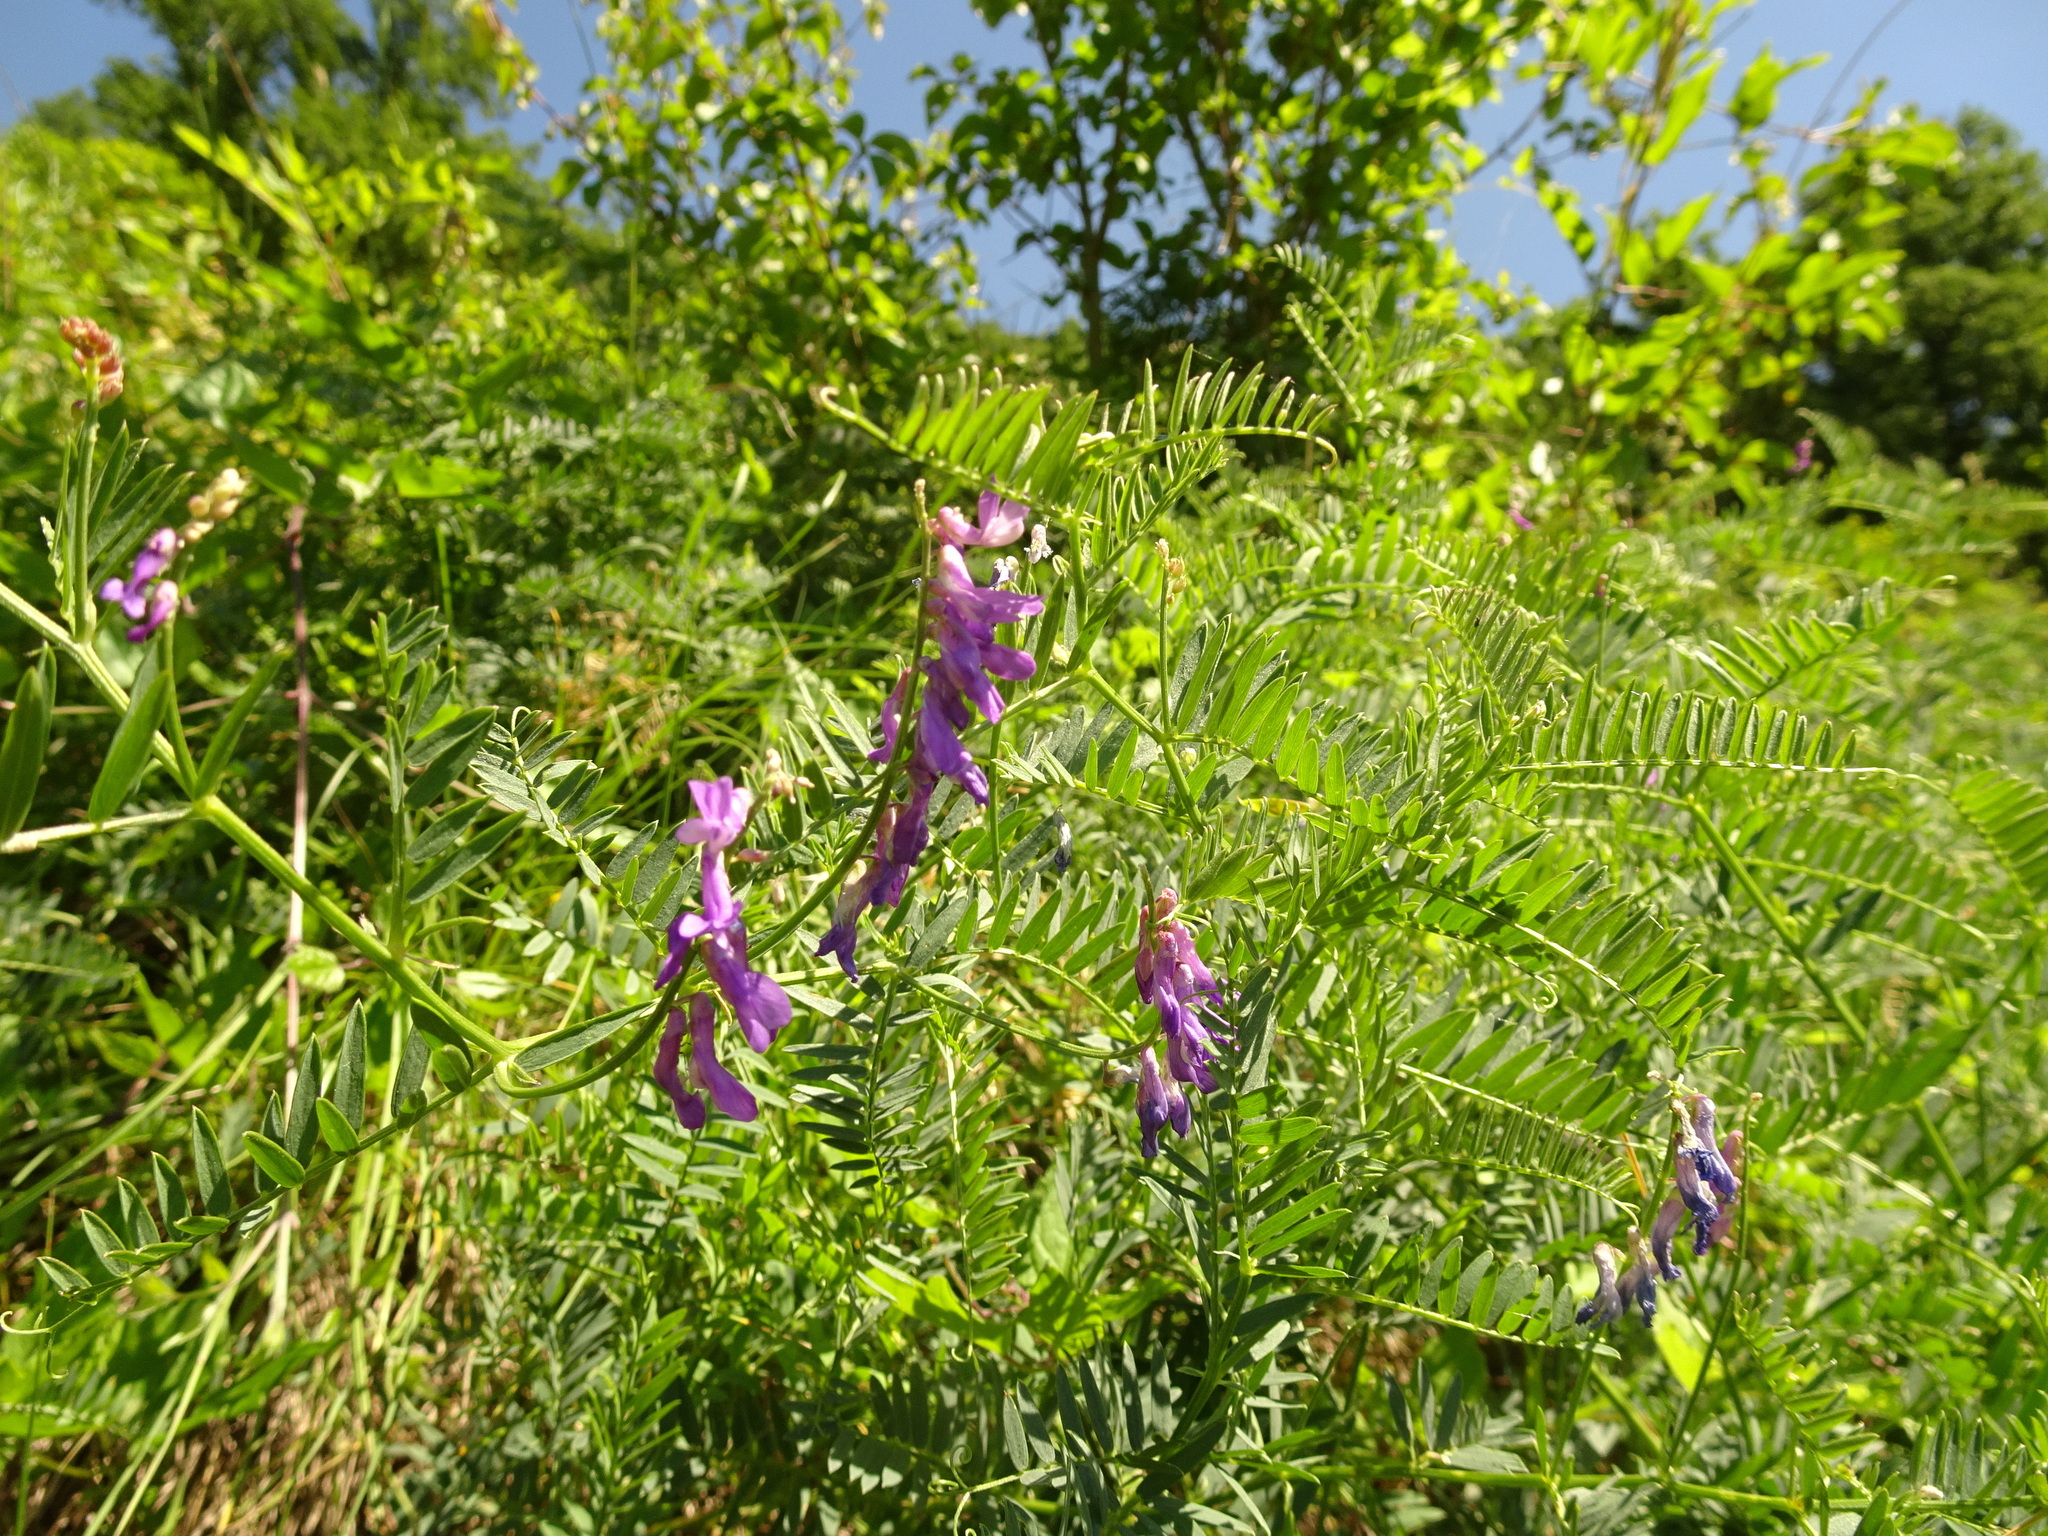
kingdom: Plantae
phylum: Tracheophyta
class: Magnoliopsida
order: Fabales
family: Fabaceae
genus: Vicia
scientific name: Vicia cracca
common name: Bird vetch
